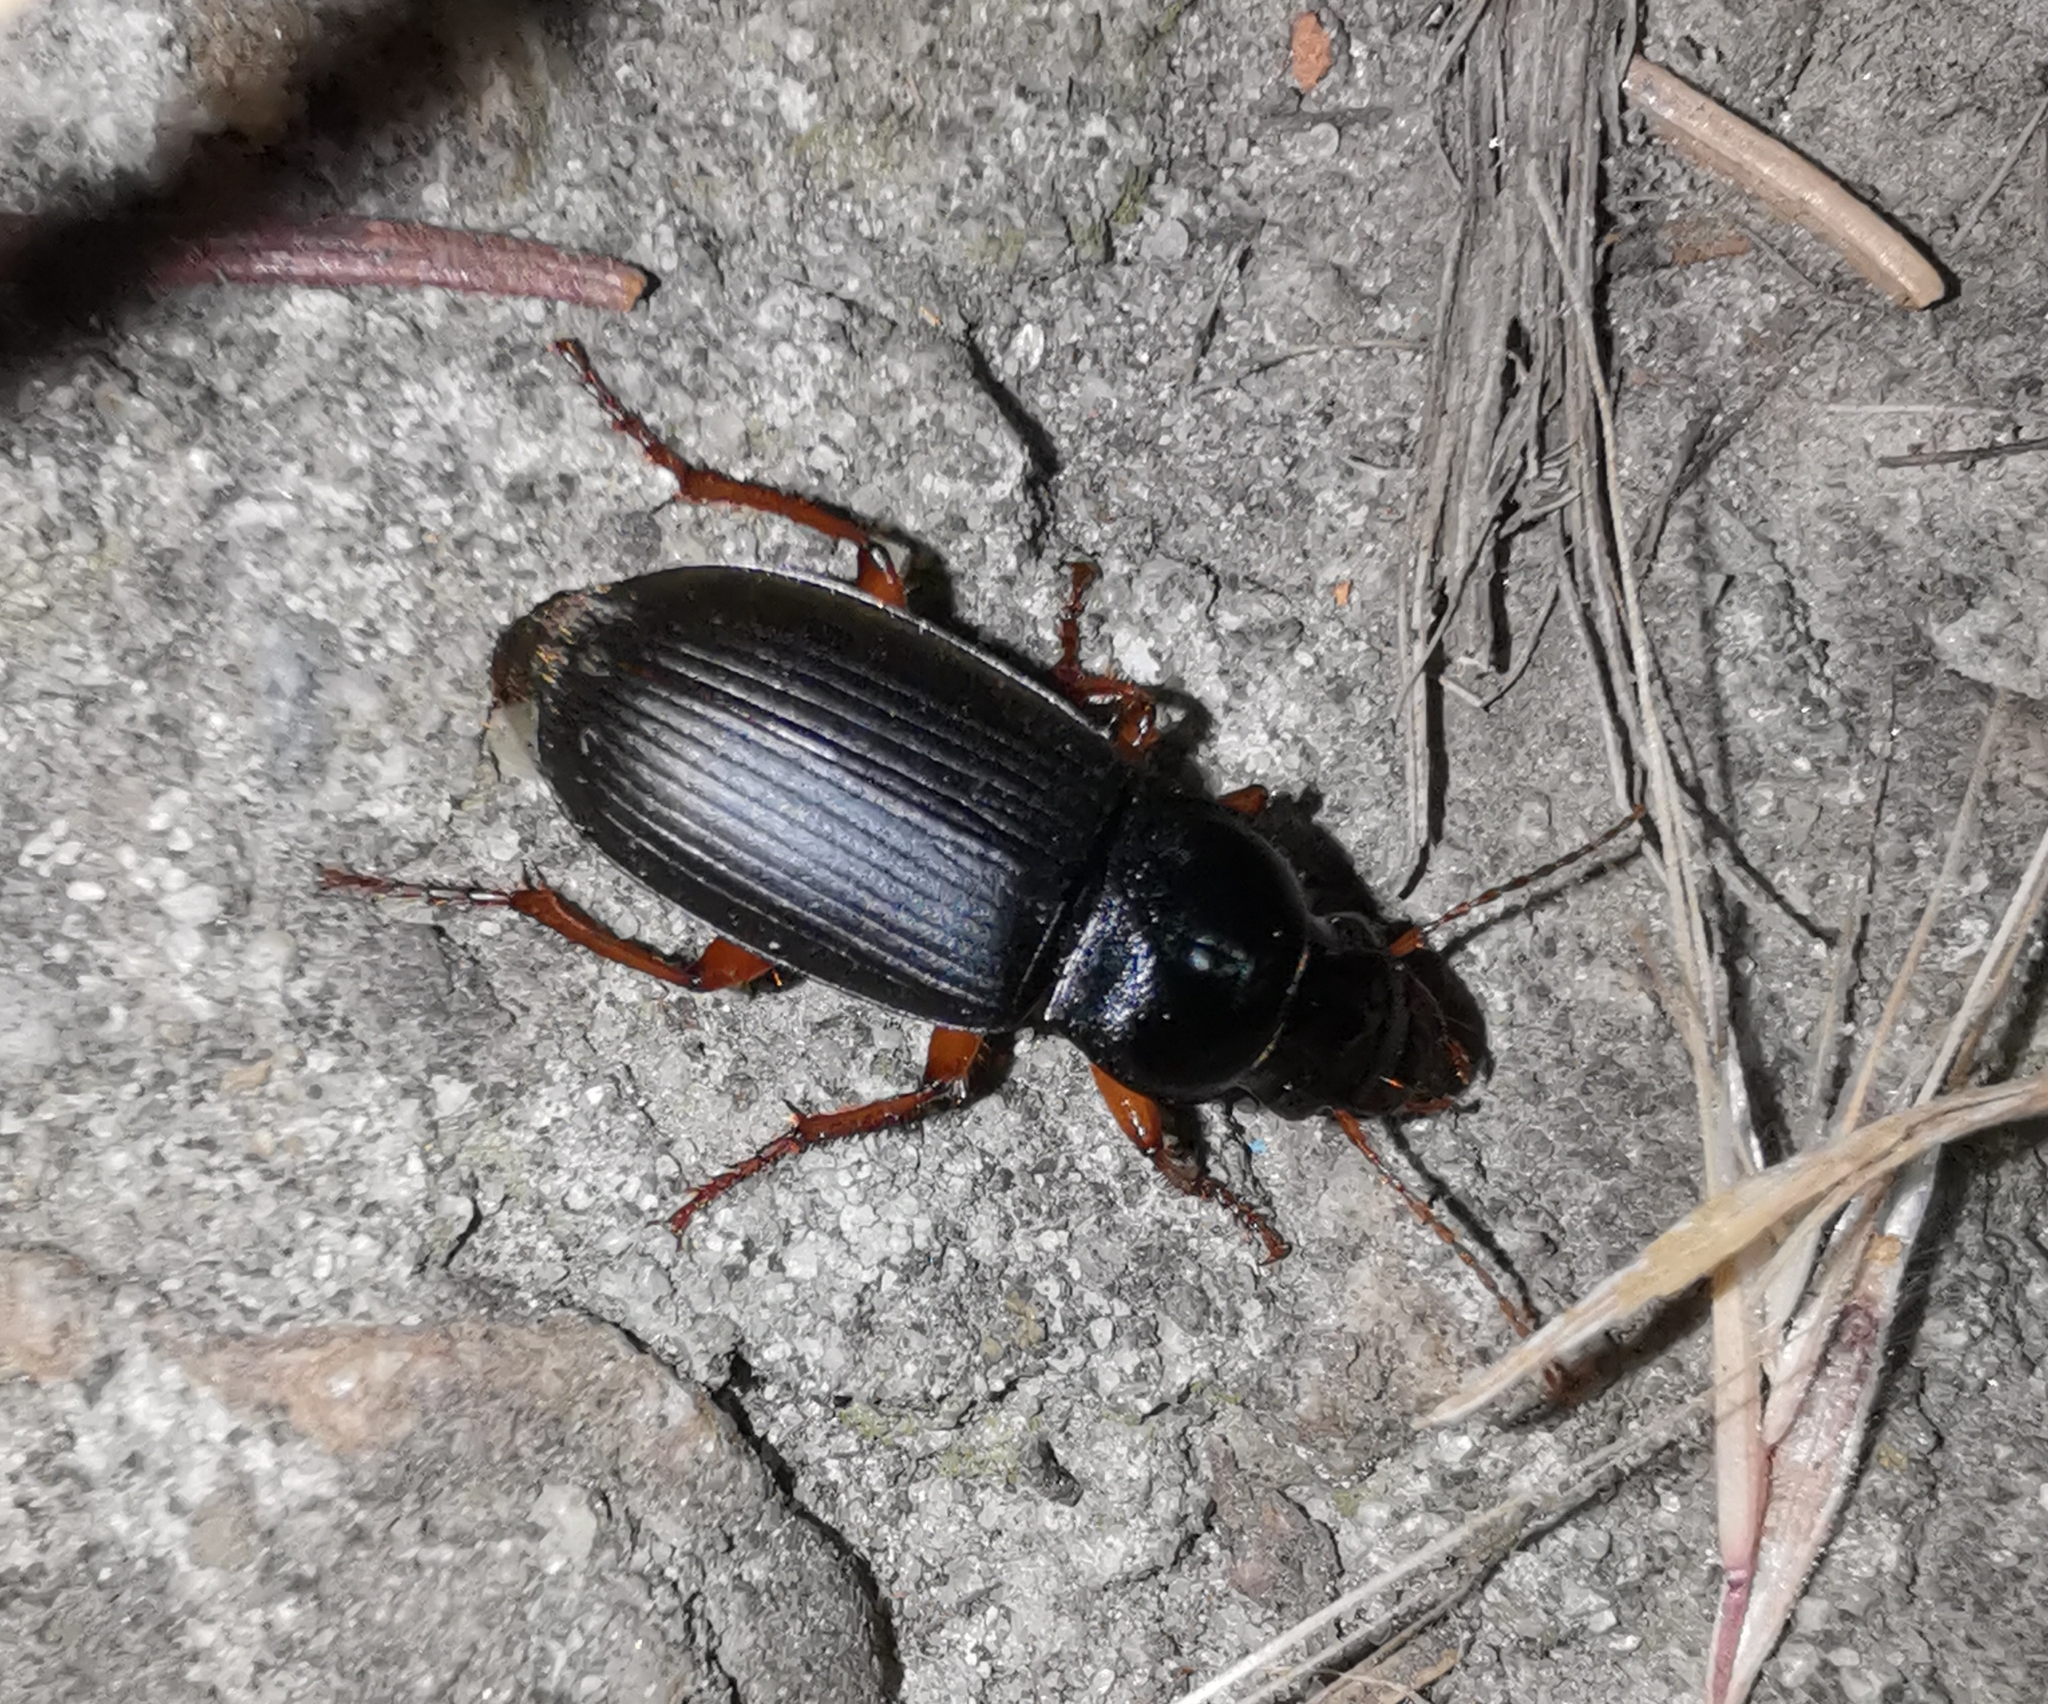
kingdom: Animalia
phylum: Arthropoda
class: Insecta
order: Coleoptera
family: Carabidae
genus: Harpalus
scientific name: Harpalus rufipes
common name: Strawberry harp ground beetle
